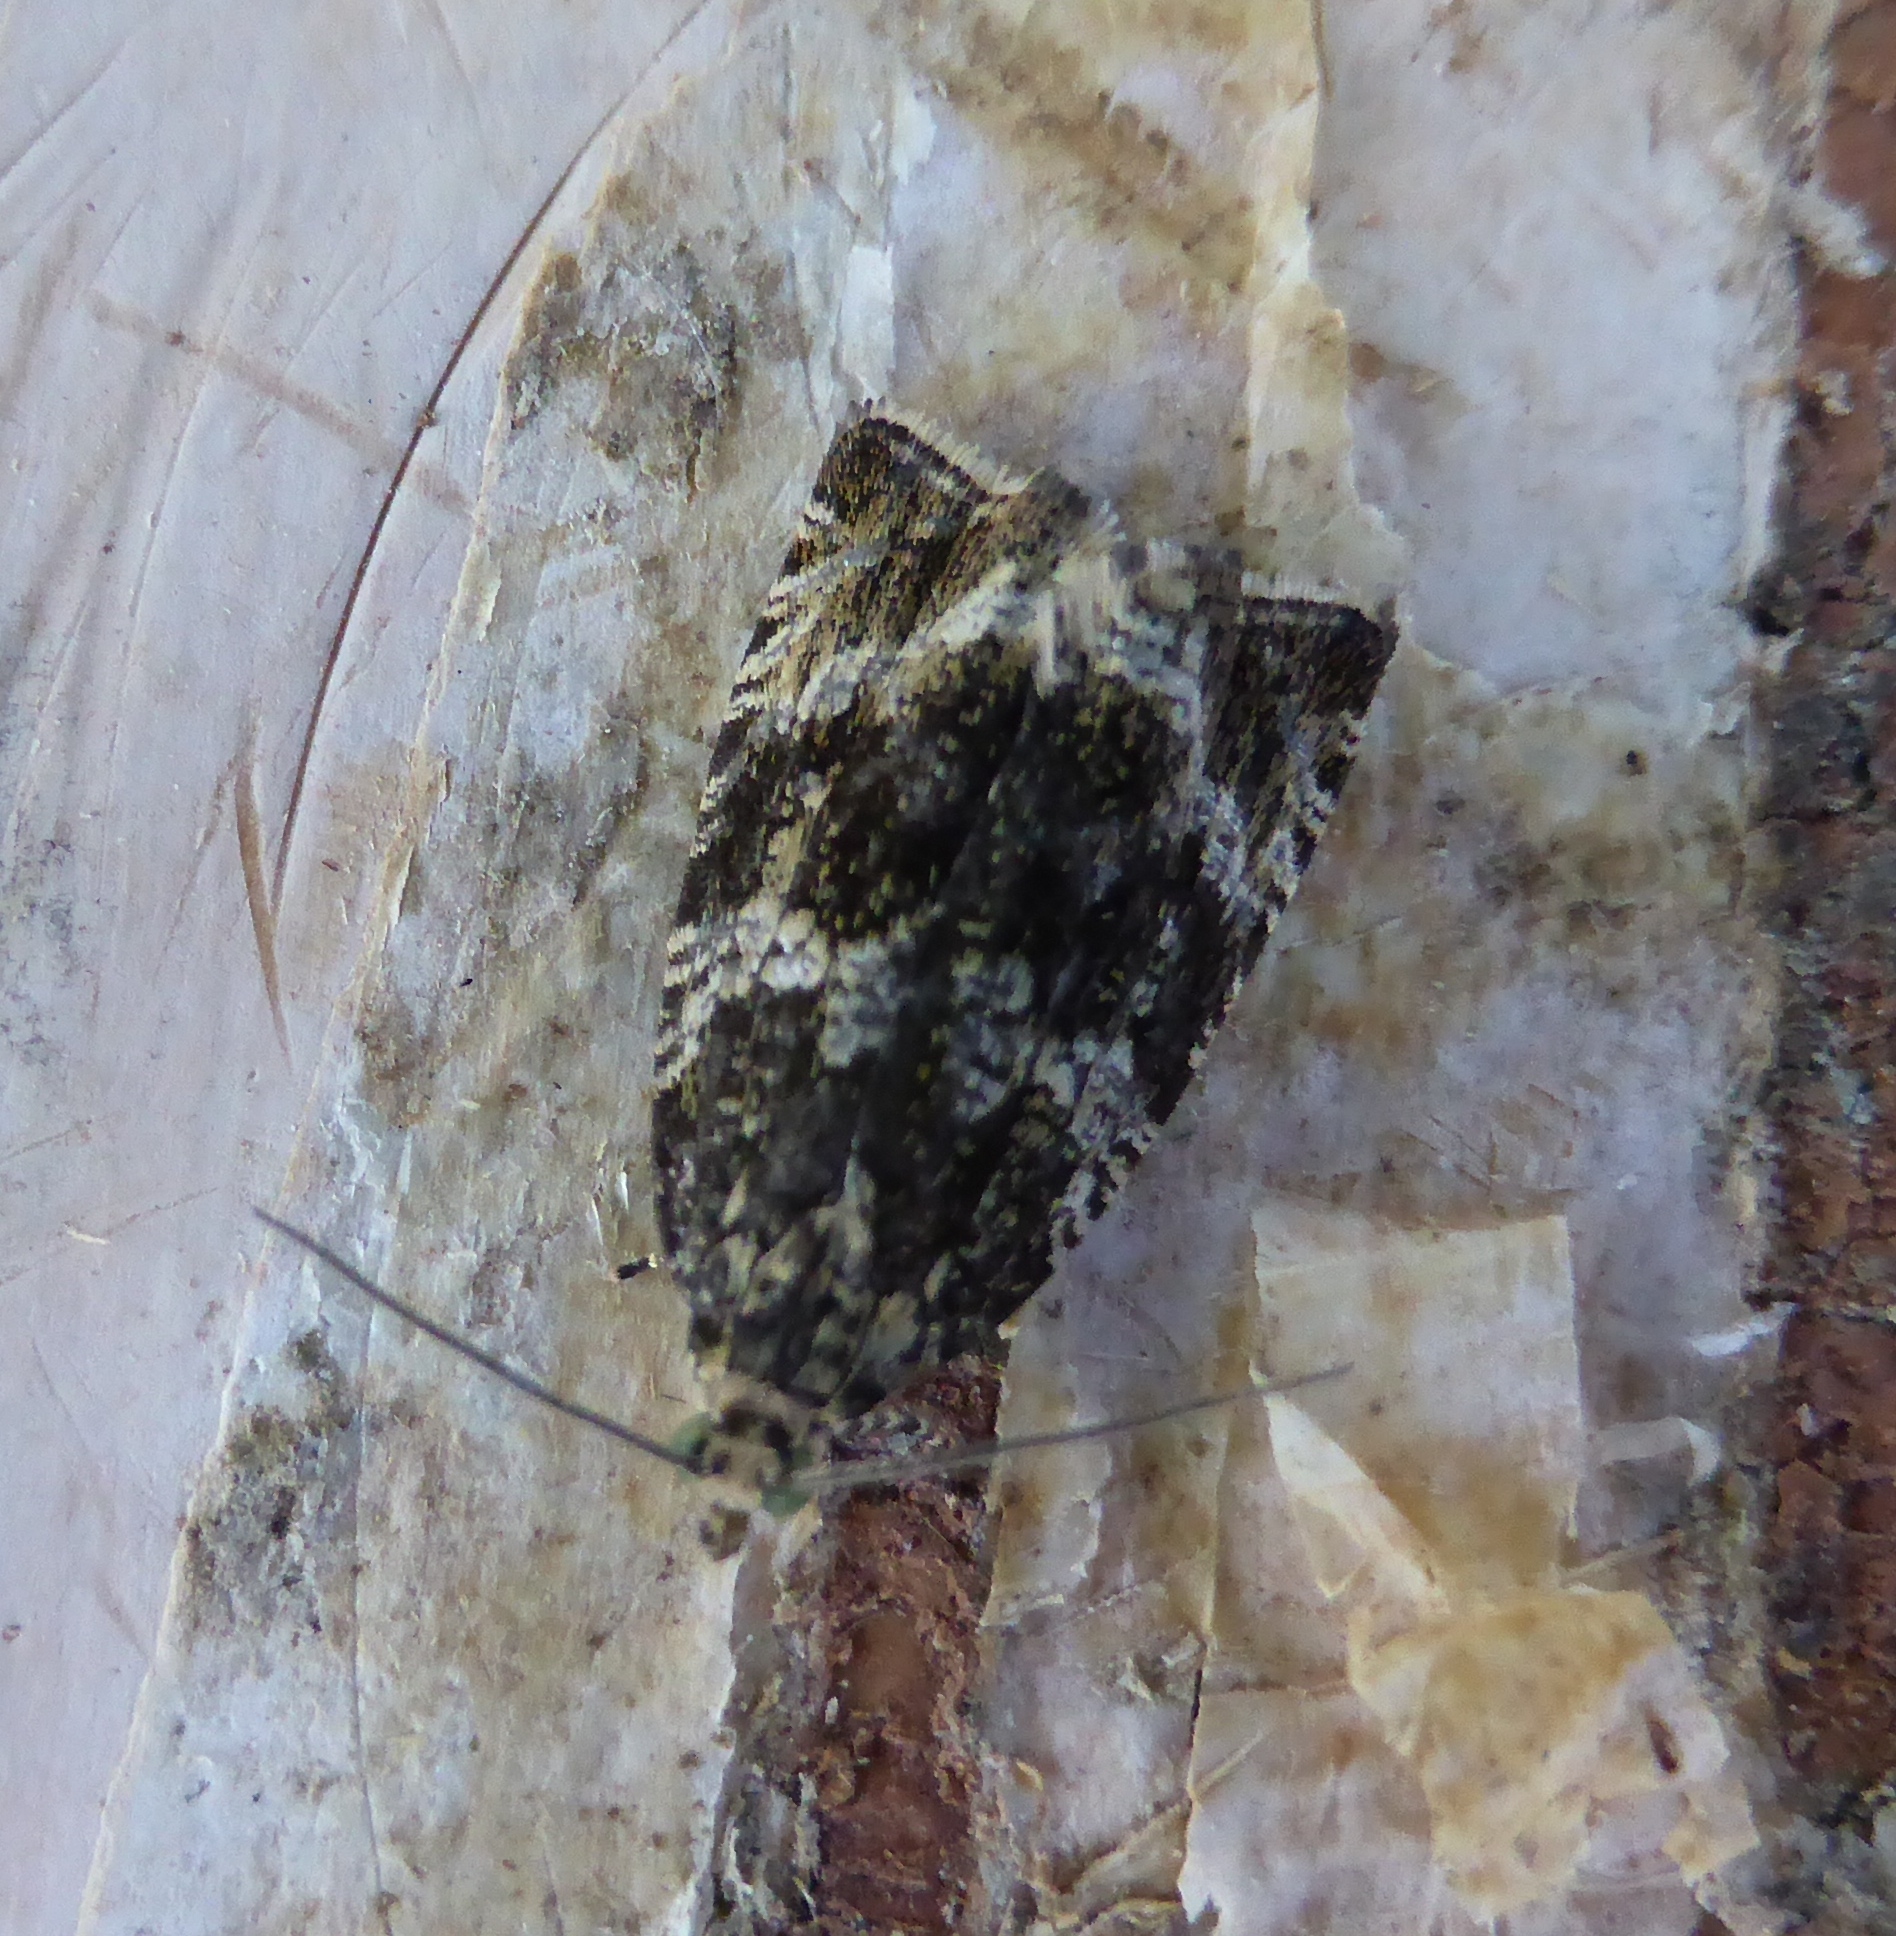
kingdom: Animalia
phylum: Arthropoda
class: Insecta
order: Lepidoptera
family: Tortricidae
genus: Syricoris
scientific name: Syricoris lacunana
